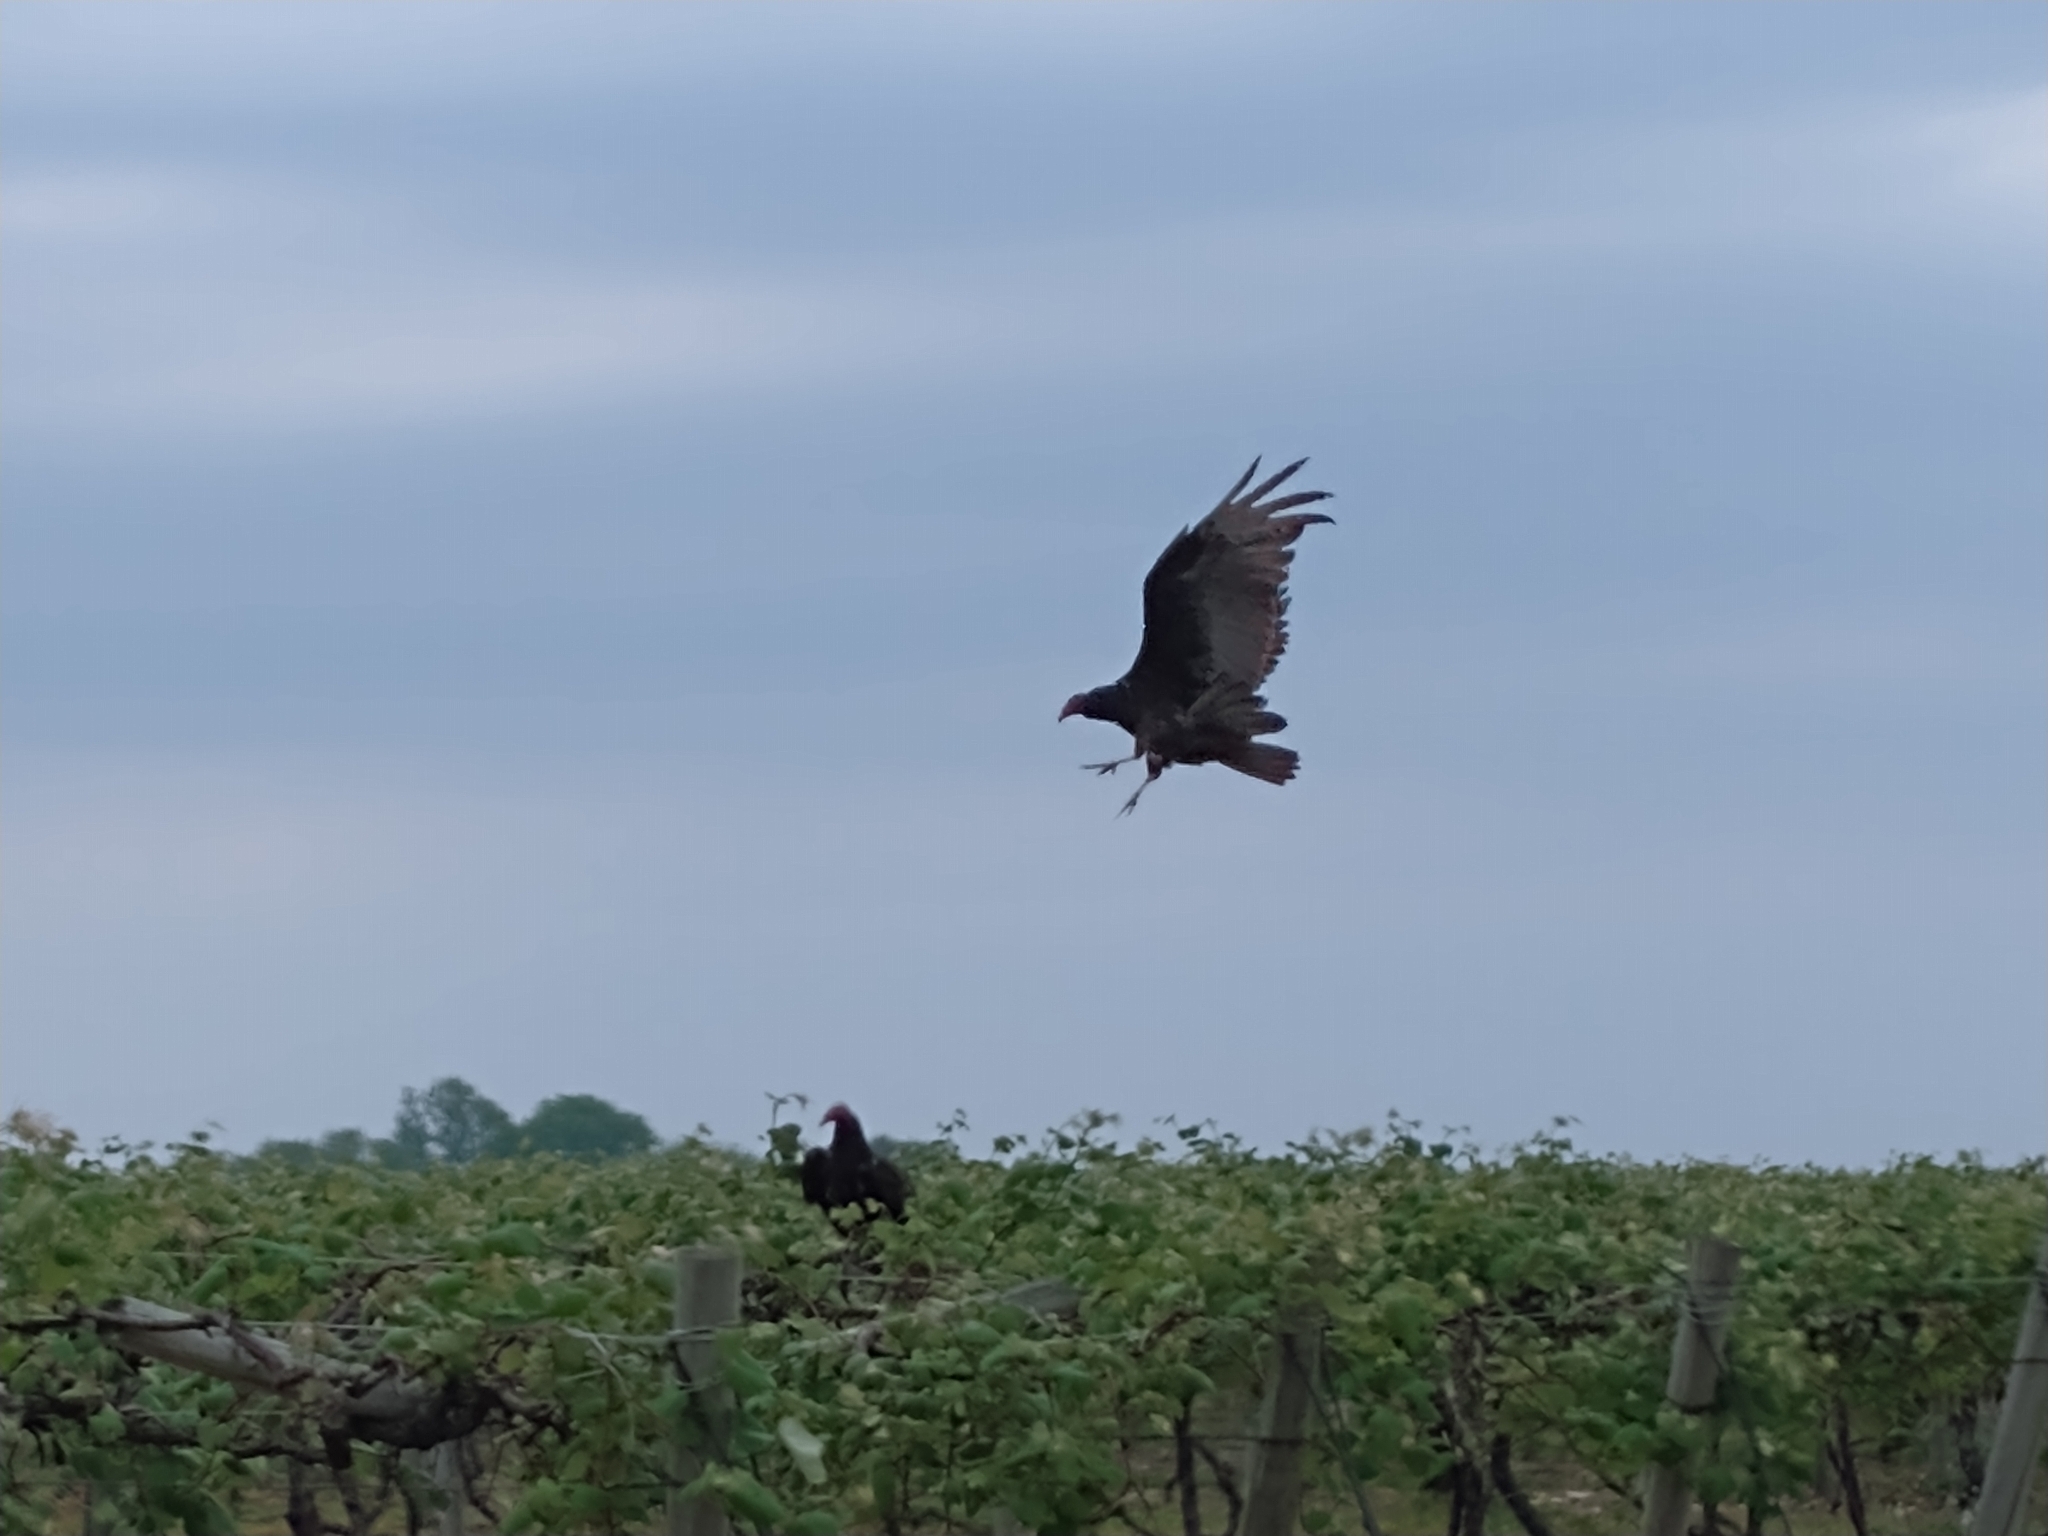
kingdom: Animalia
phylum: Chordata
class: Aves
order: Accipitriformes
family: Cathartidae
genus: Cathartes
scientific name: Cathartes aura
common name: Turkey vulture
